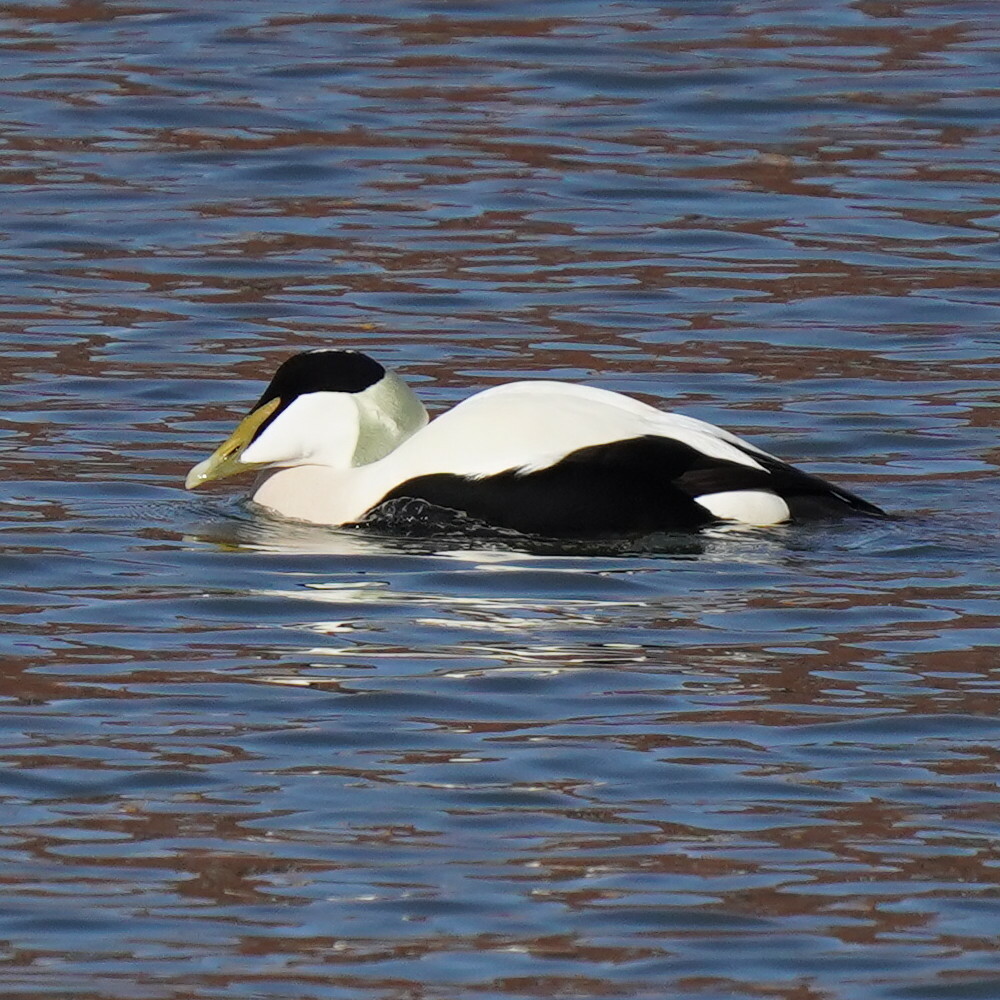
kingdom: Animalia
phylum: Chordata
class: Aves
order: Anseriformes
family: Anatidae
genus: Somateria
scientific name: Somateria mollissima
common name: Common eider
